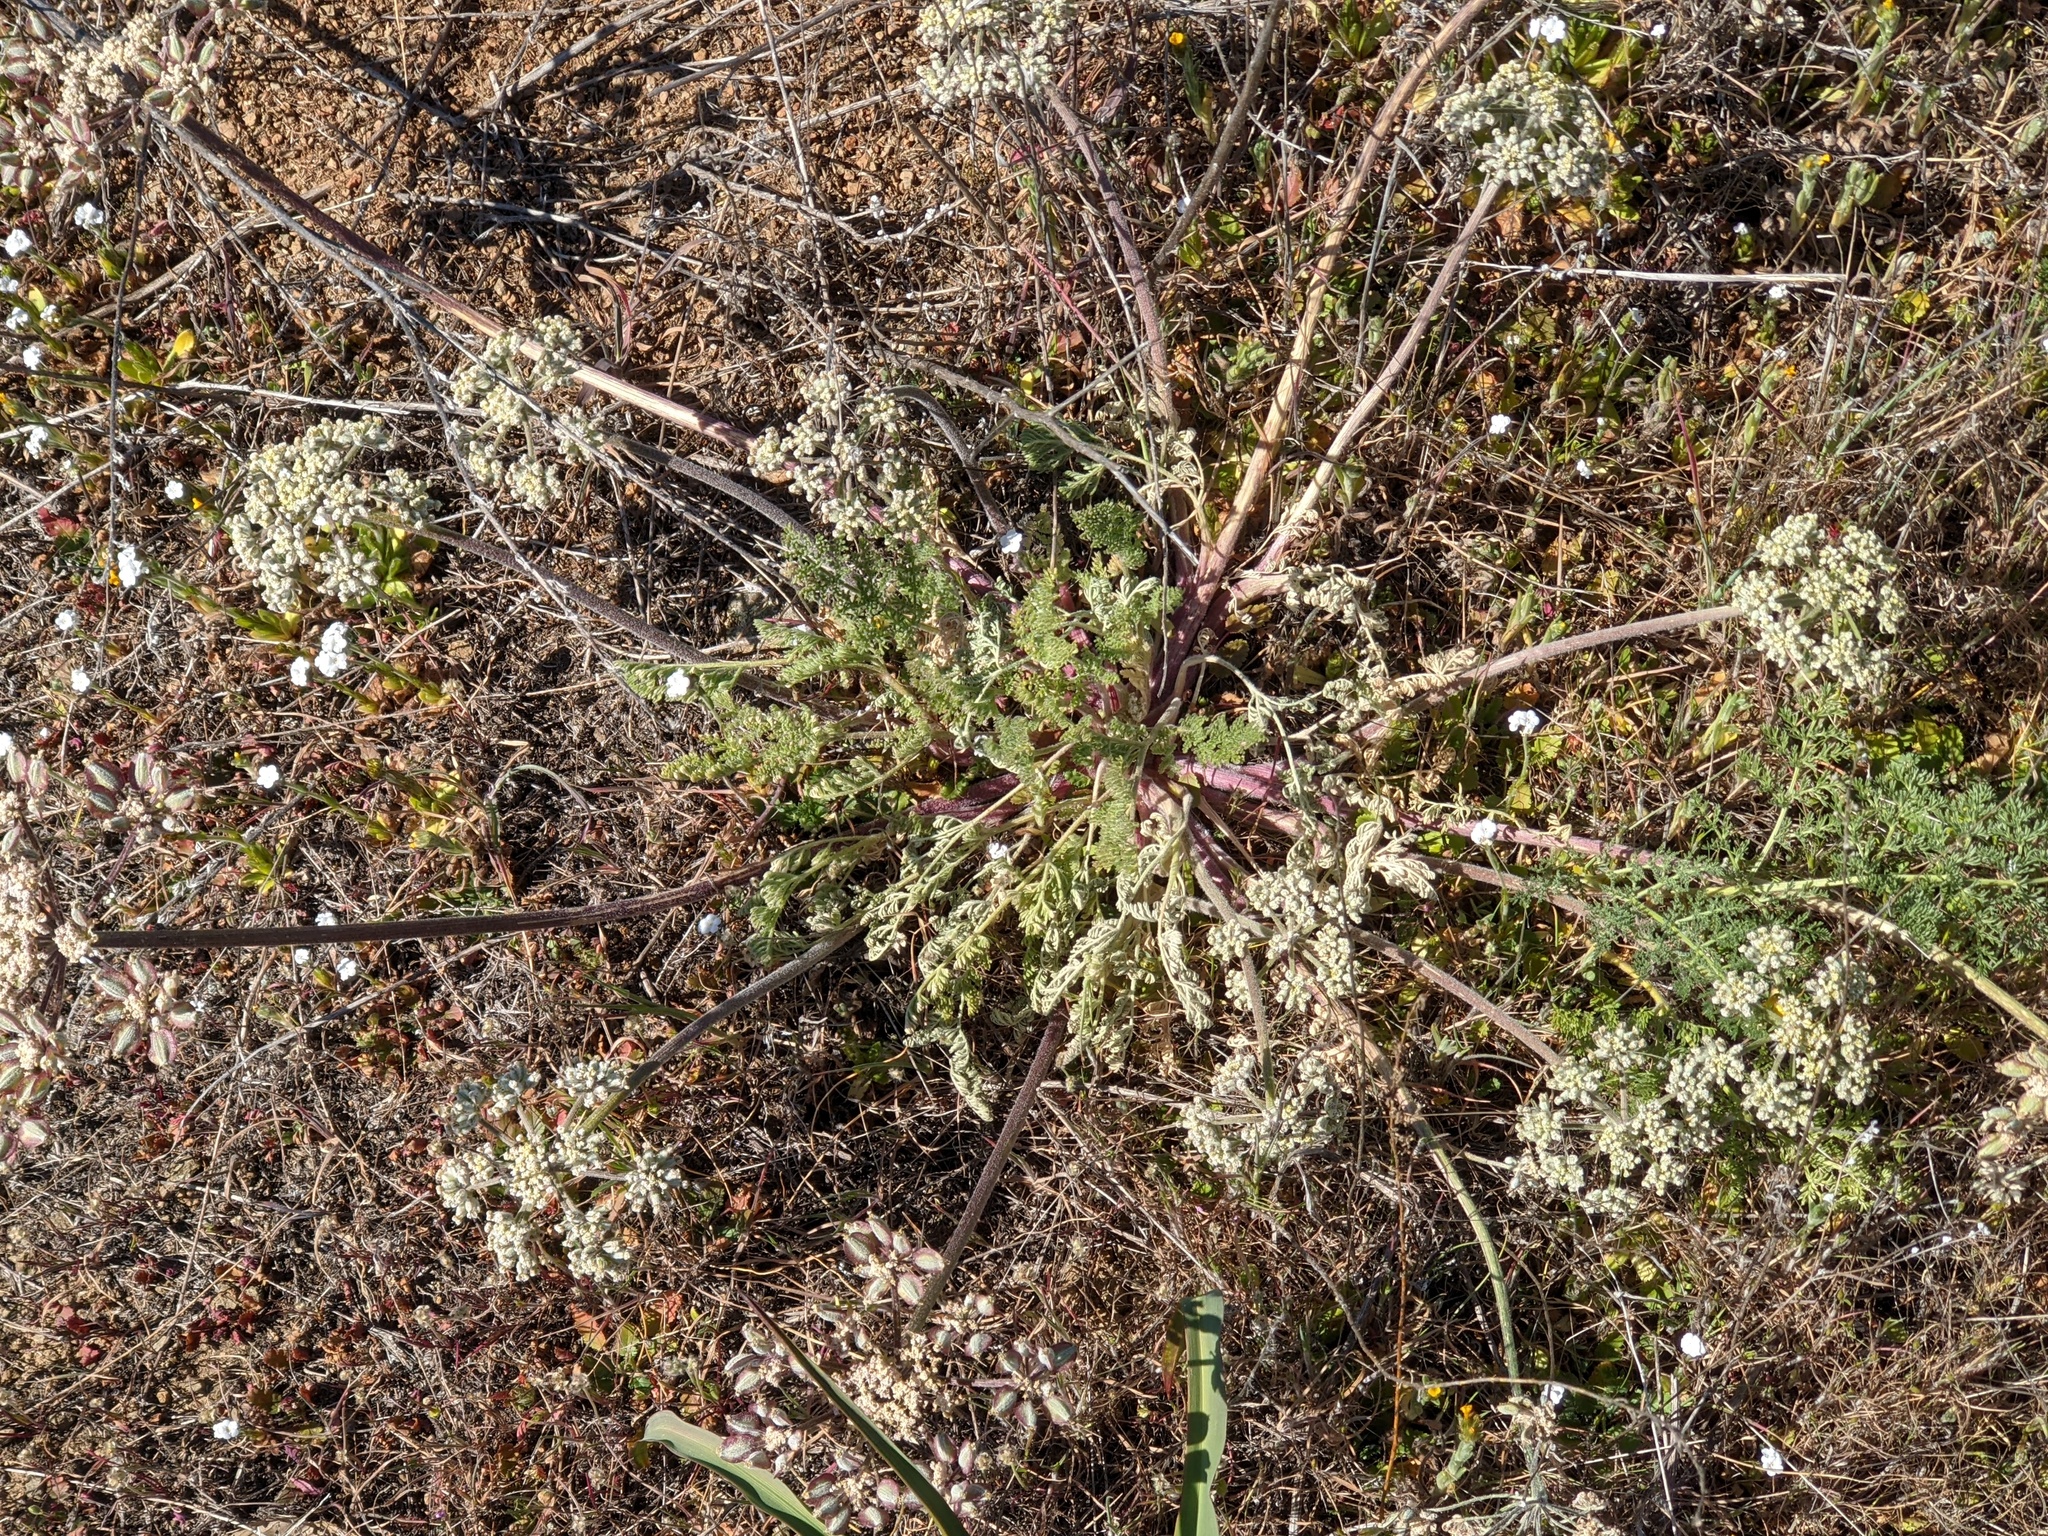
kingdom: Plantae
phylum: Tracheophyta
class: Magnoliopsida
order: Apiales
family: Apiaceae
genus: Lomatium
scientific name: Lomatium dasycarpum
